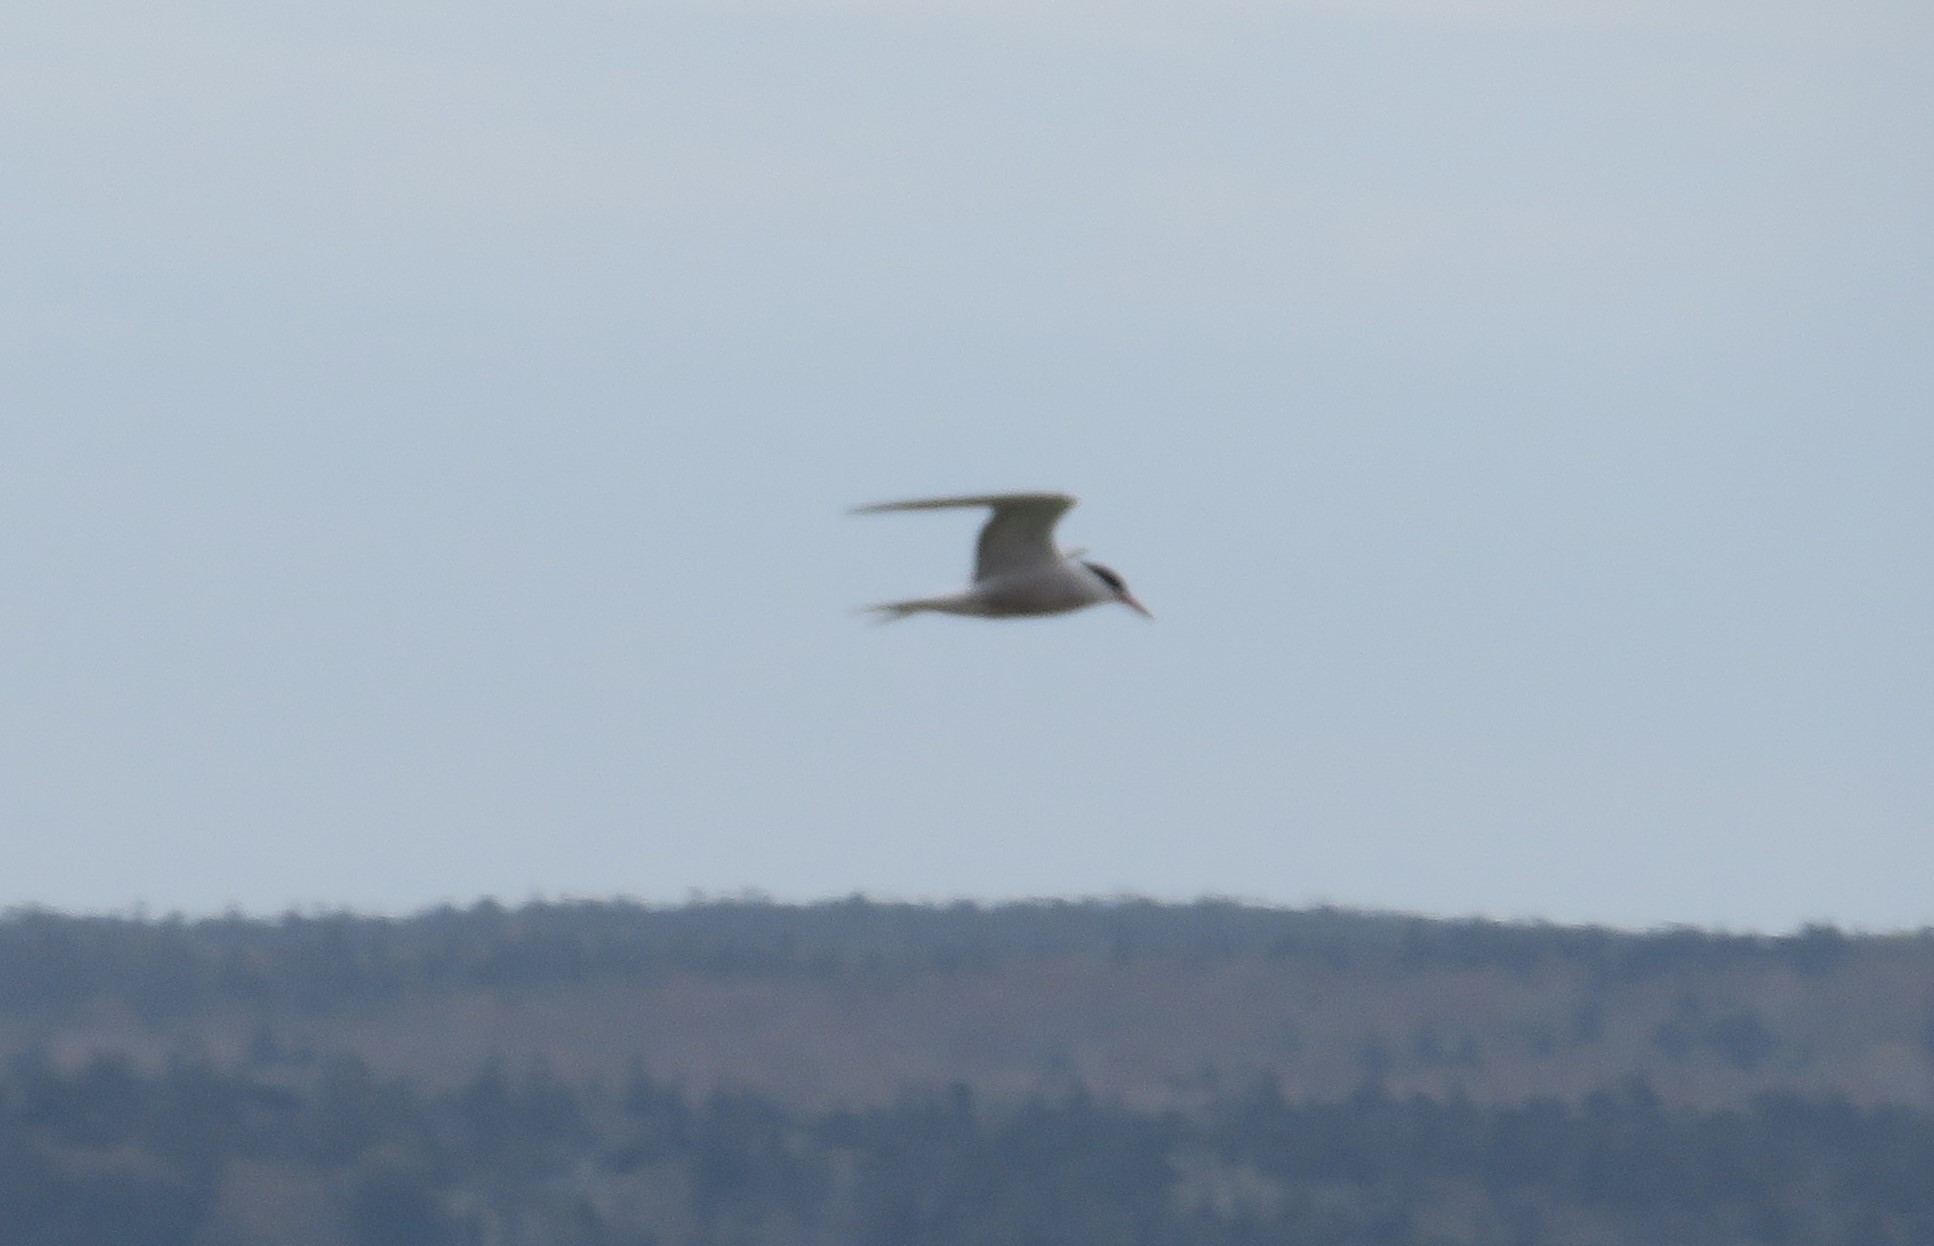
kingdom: Animalia
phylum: Chordata
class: Aves
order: Charadriiformes
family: Laridae
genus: Sterna
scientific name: Sterna hirundo
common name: Common tern
